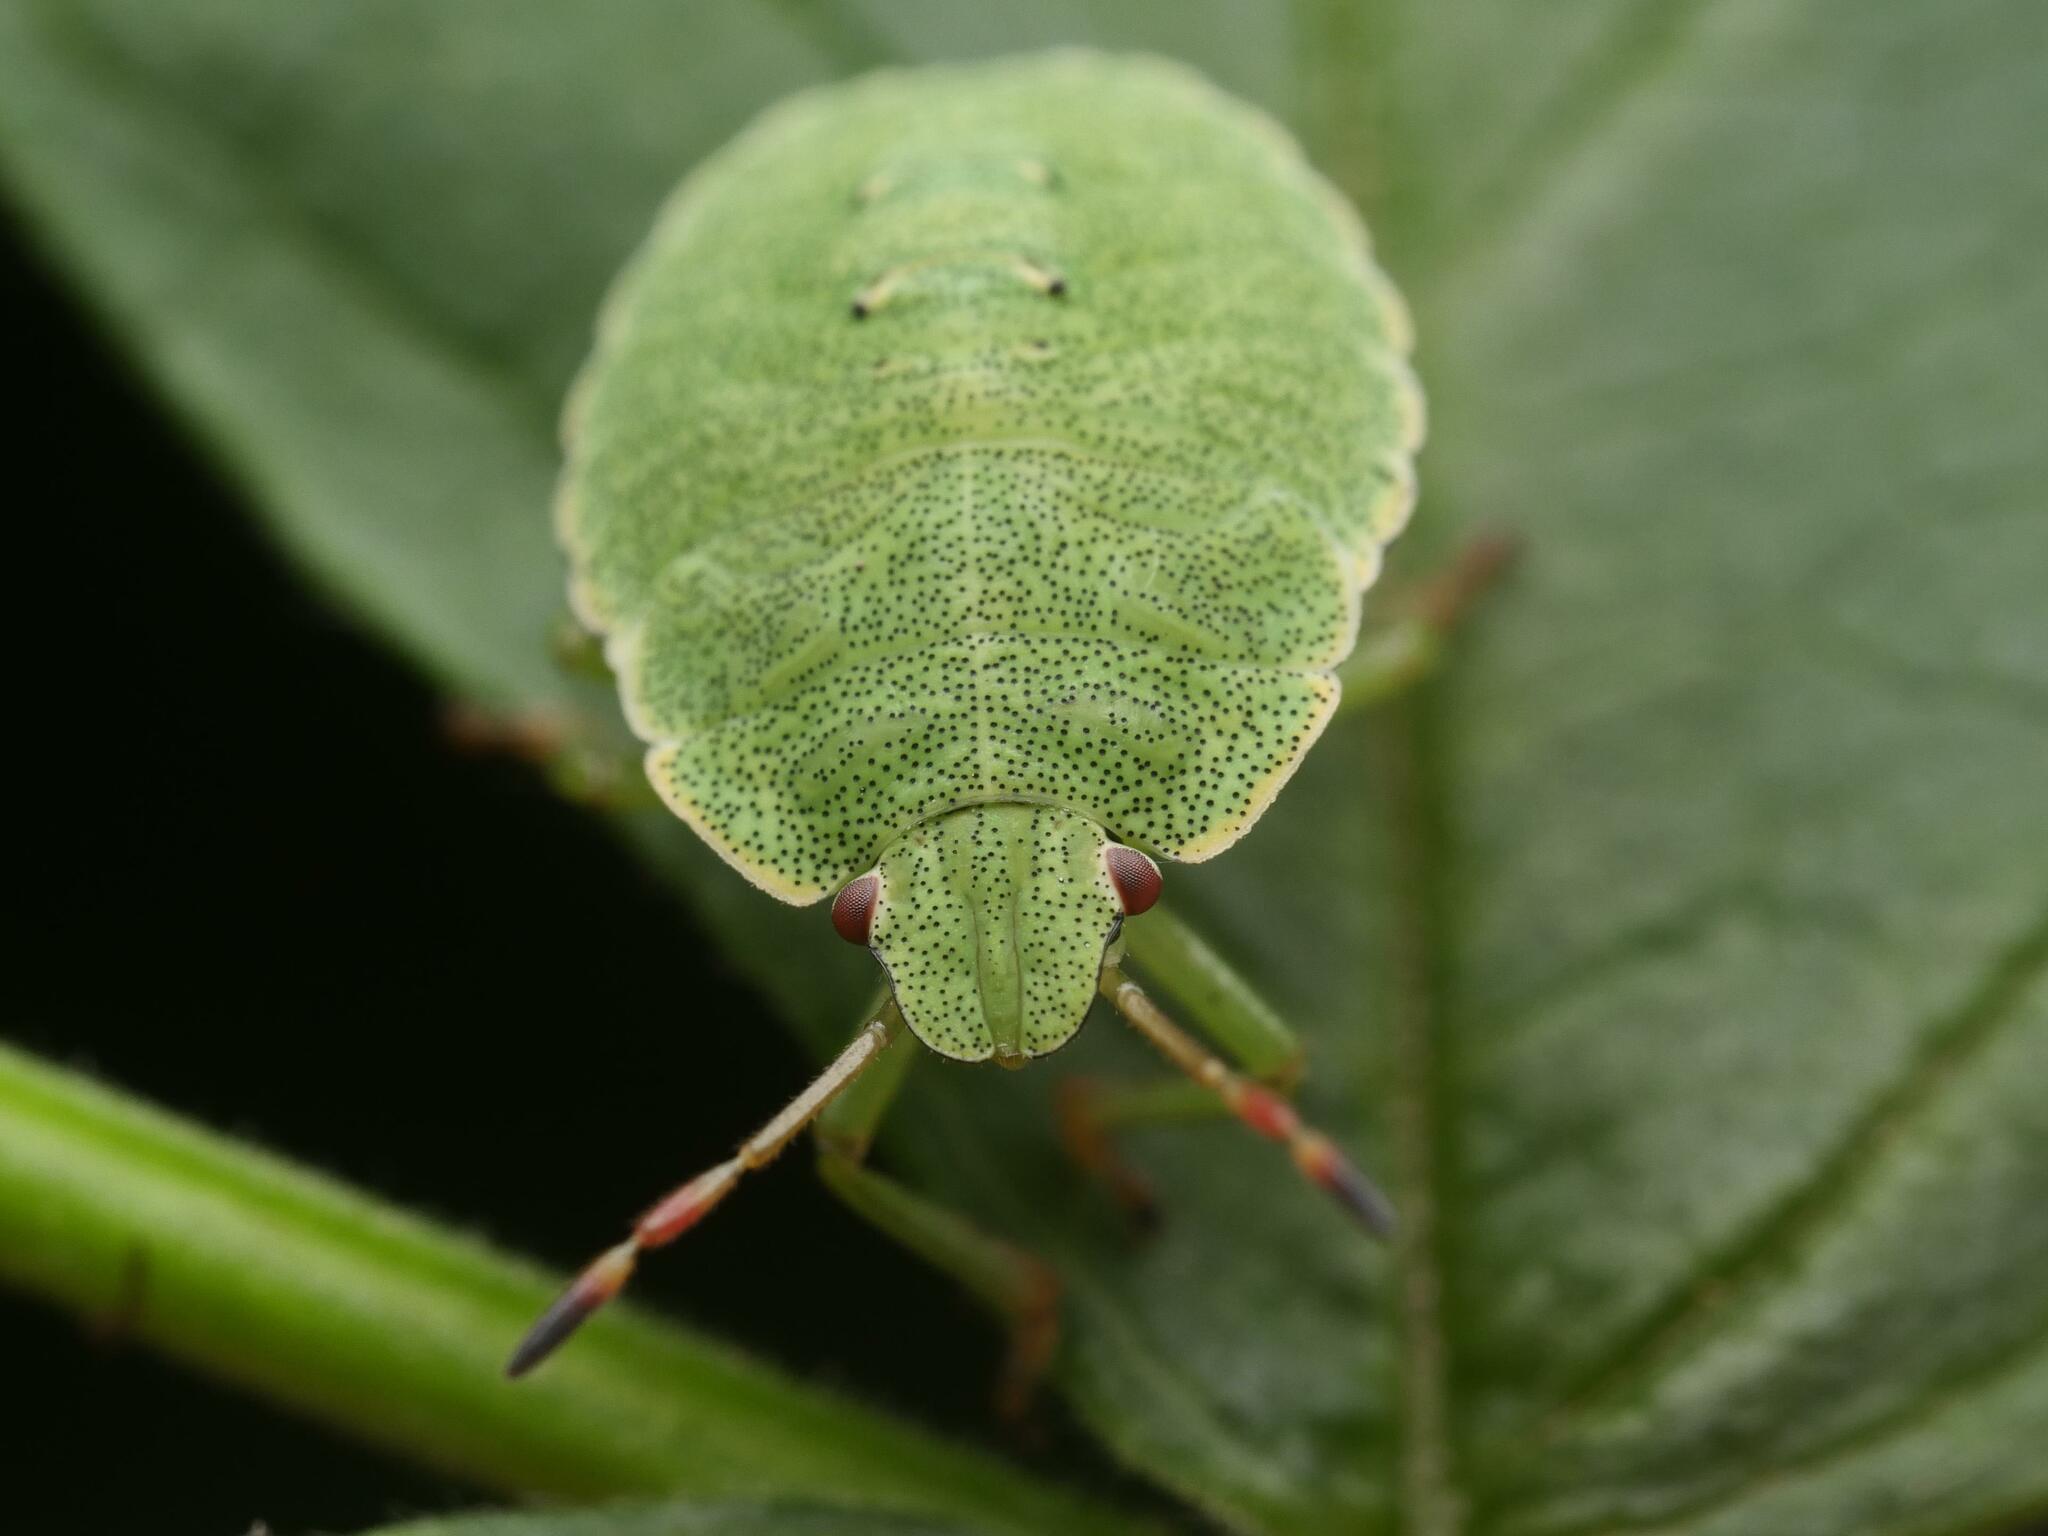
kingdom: Animalia
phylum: Arthropoda
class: Insecta
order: Hemiptera
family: Pentatomidae
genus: Palomena
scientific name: Palomena prasina
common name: Green shieldbug
